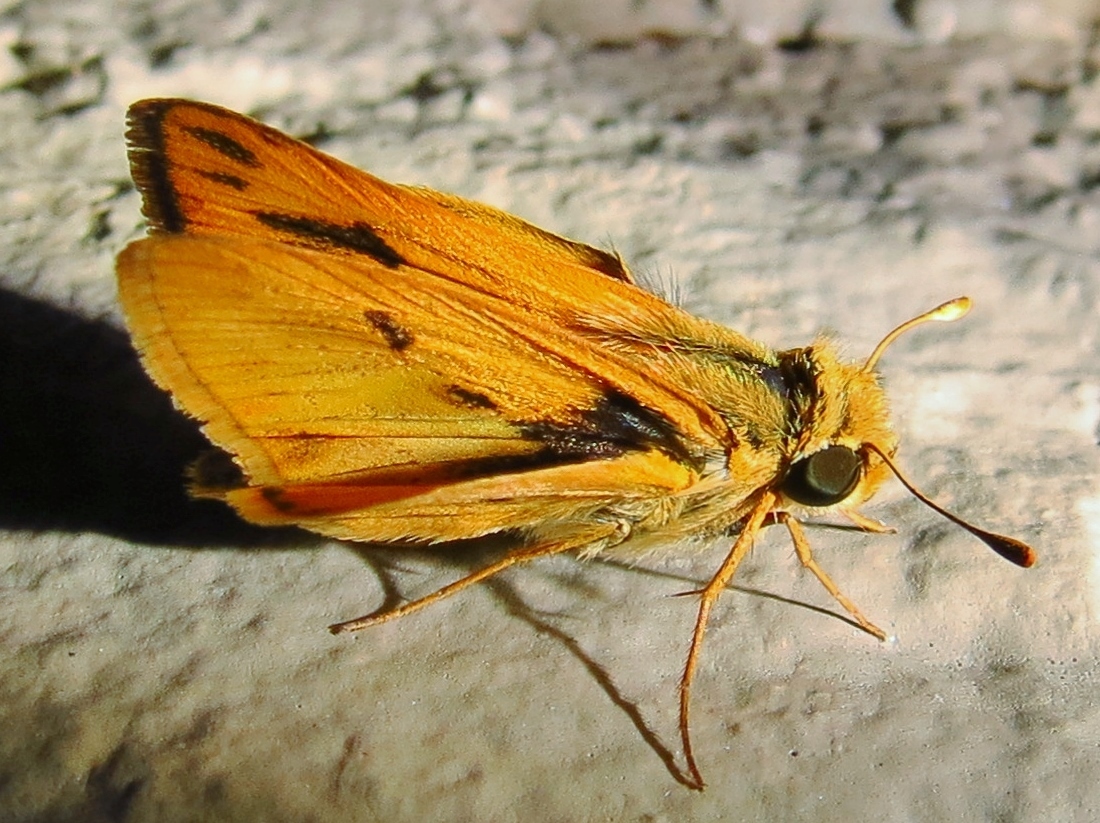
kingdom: Animalia
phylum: Arthropoda
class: Insecta
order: Lepidoptera
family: Hesperiidae
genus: Hylephila
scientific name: Hylephila phyleus
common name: Fiery skipper
